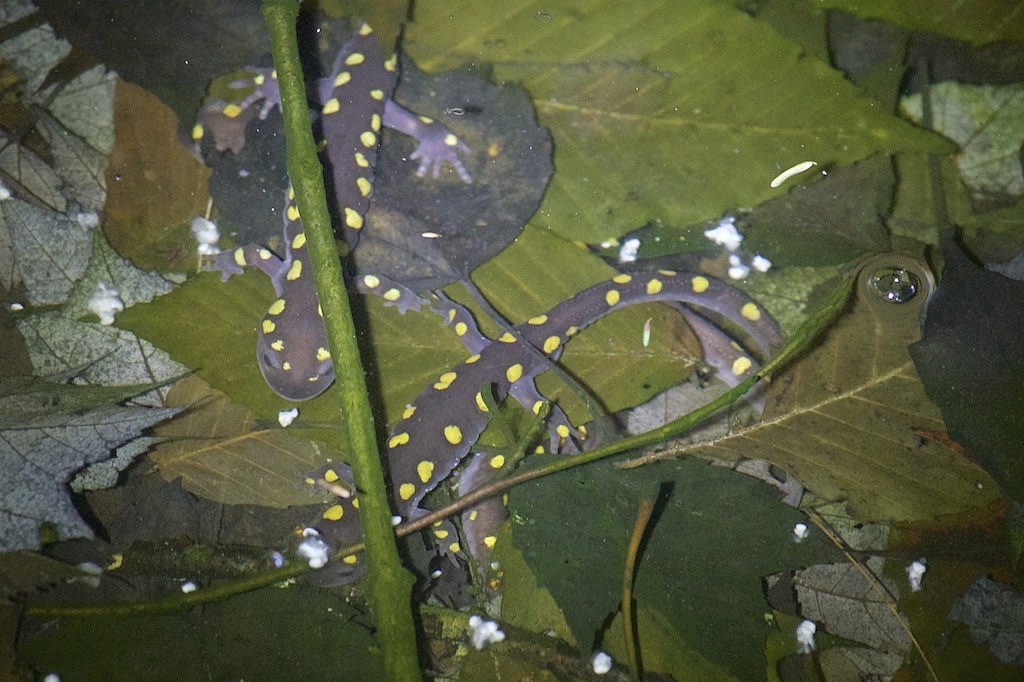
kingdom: Animalia
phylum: Chordata
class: Amphibia
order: Caudata
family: Ambystomatidae
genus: Ambystoma
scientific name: Ambystoma maculatum
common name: Spotted salamander
